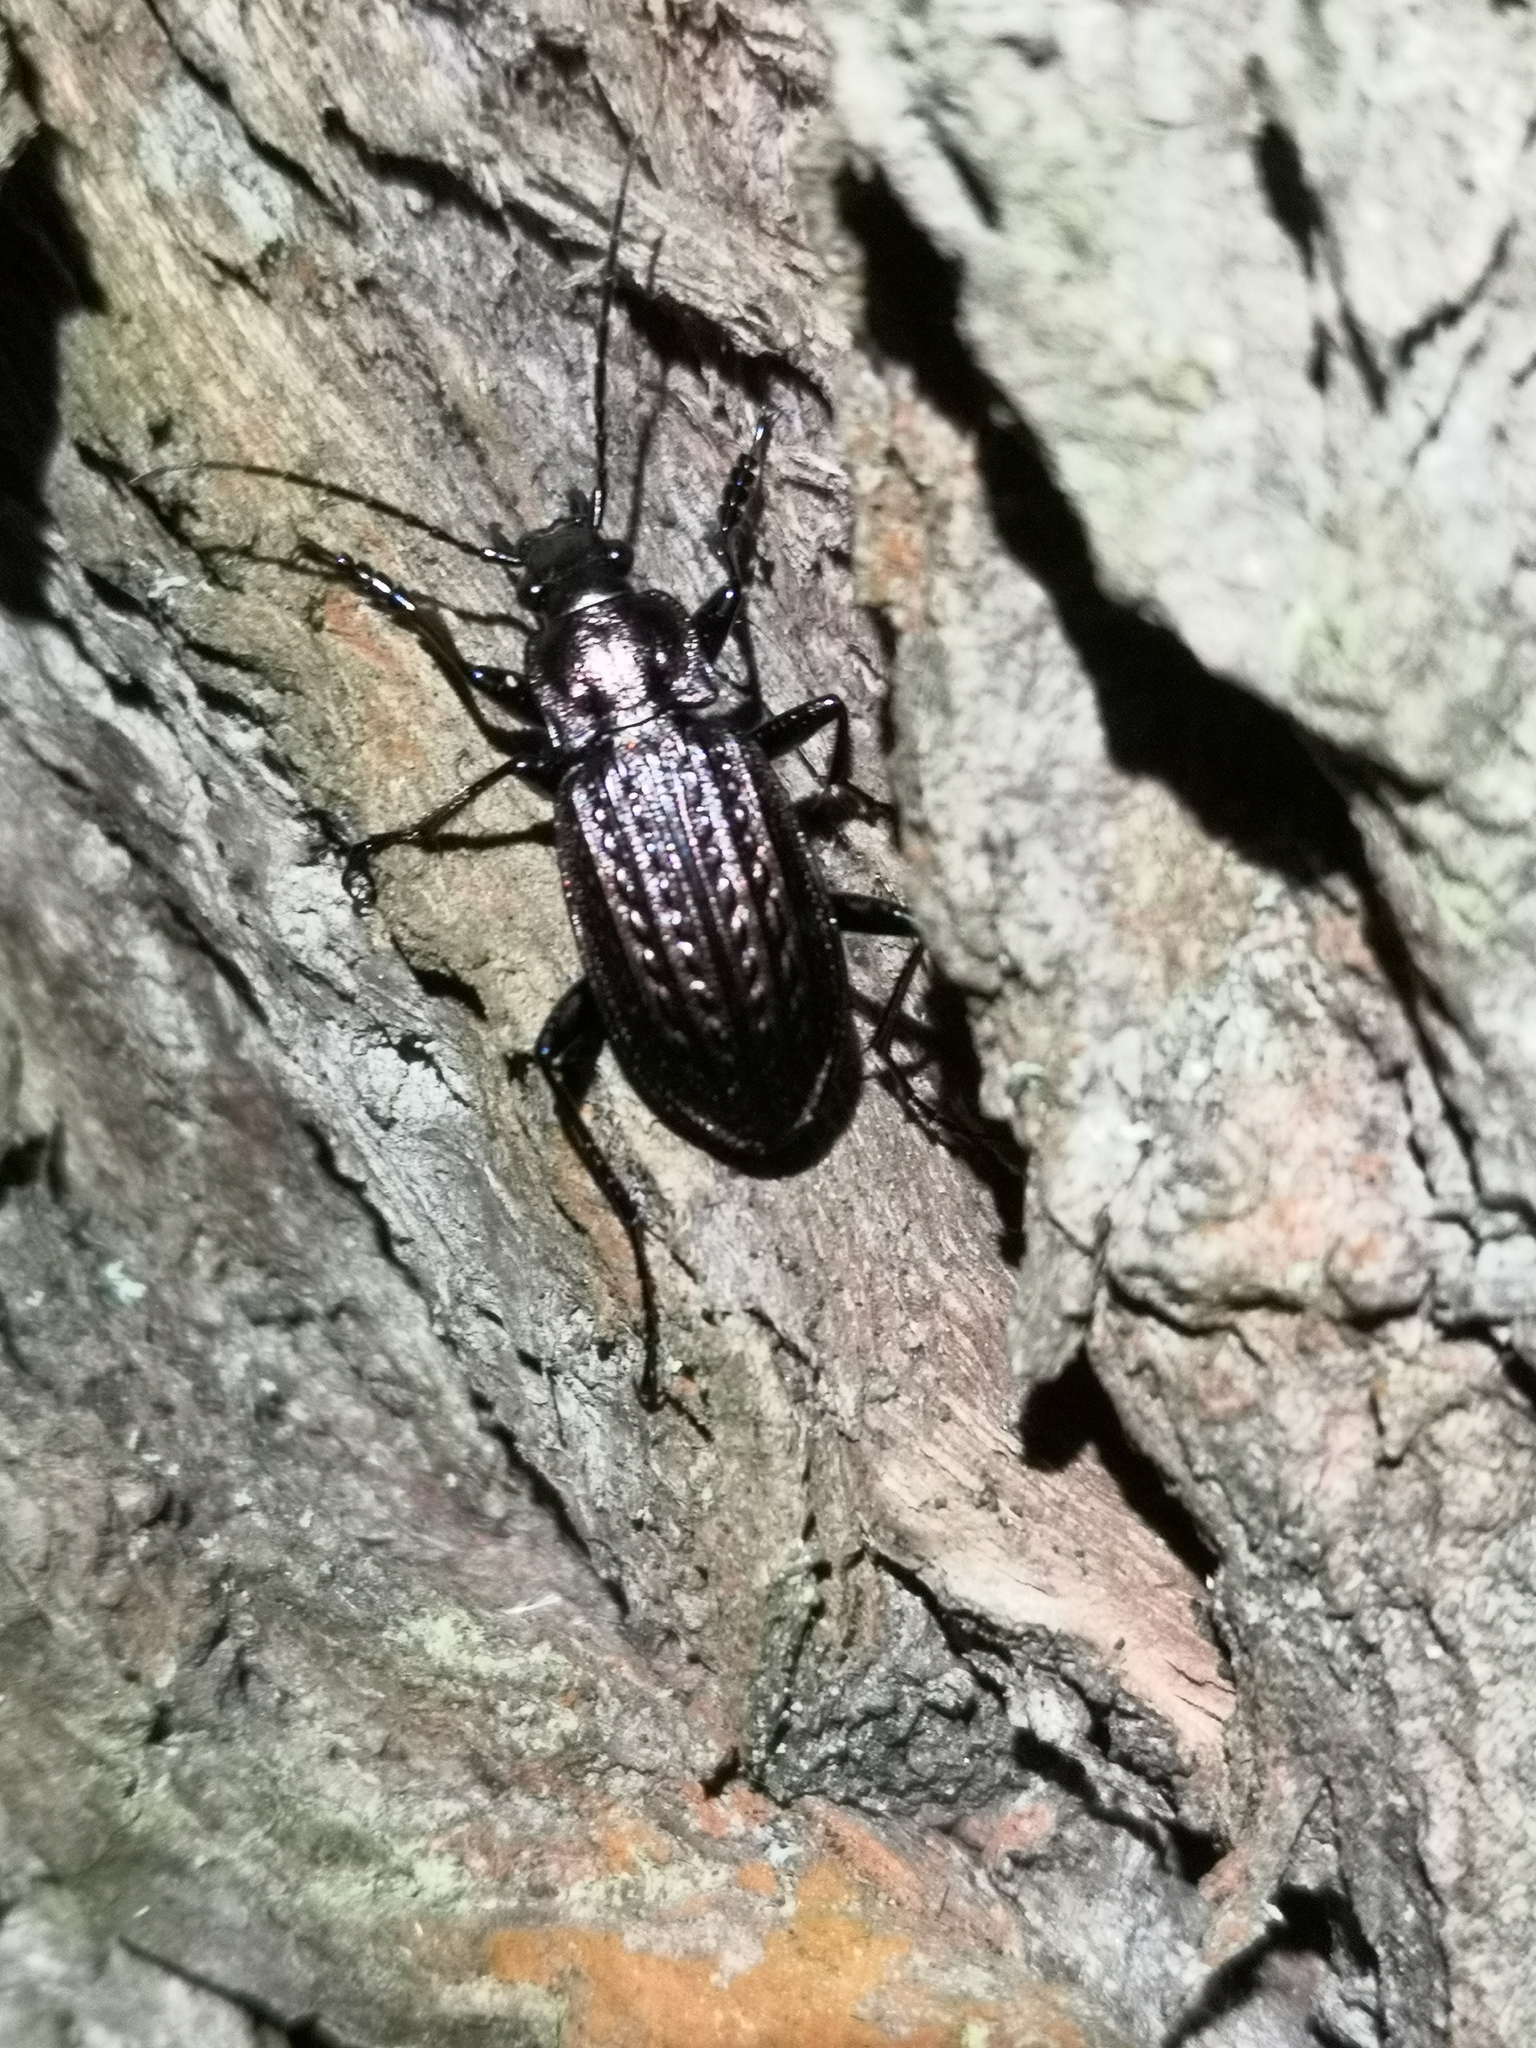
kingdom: Animalia
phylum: Arthropoda
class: Insecta
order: Coleoptera
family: Carabidae
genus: Carabus
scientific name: Carabus granulatus
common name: Granulate ground beetle
